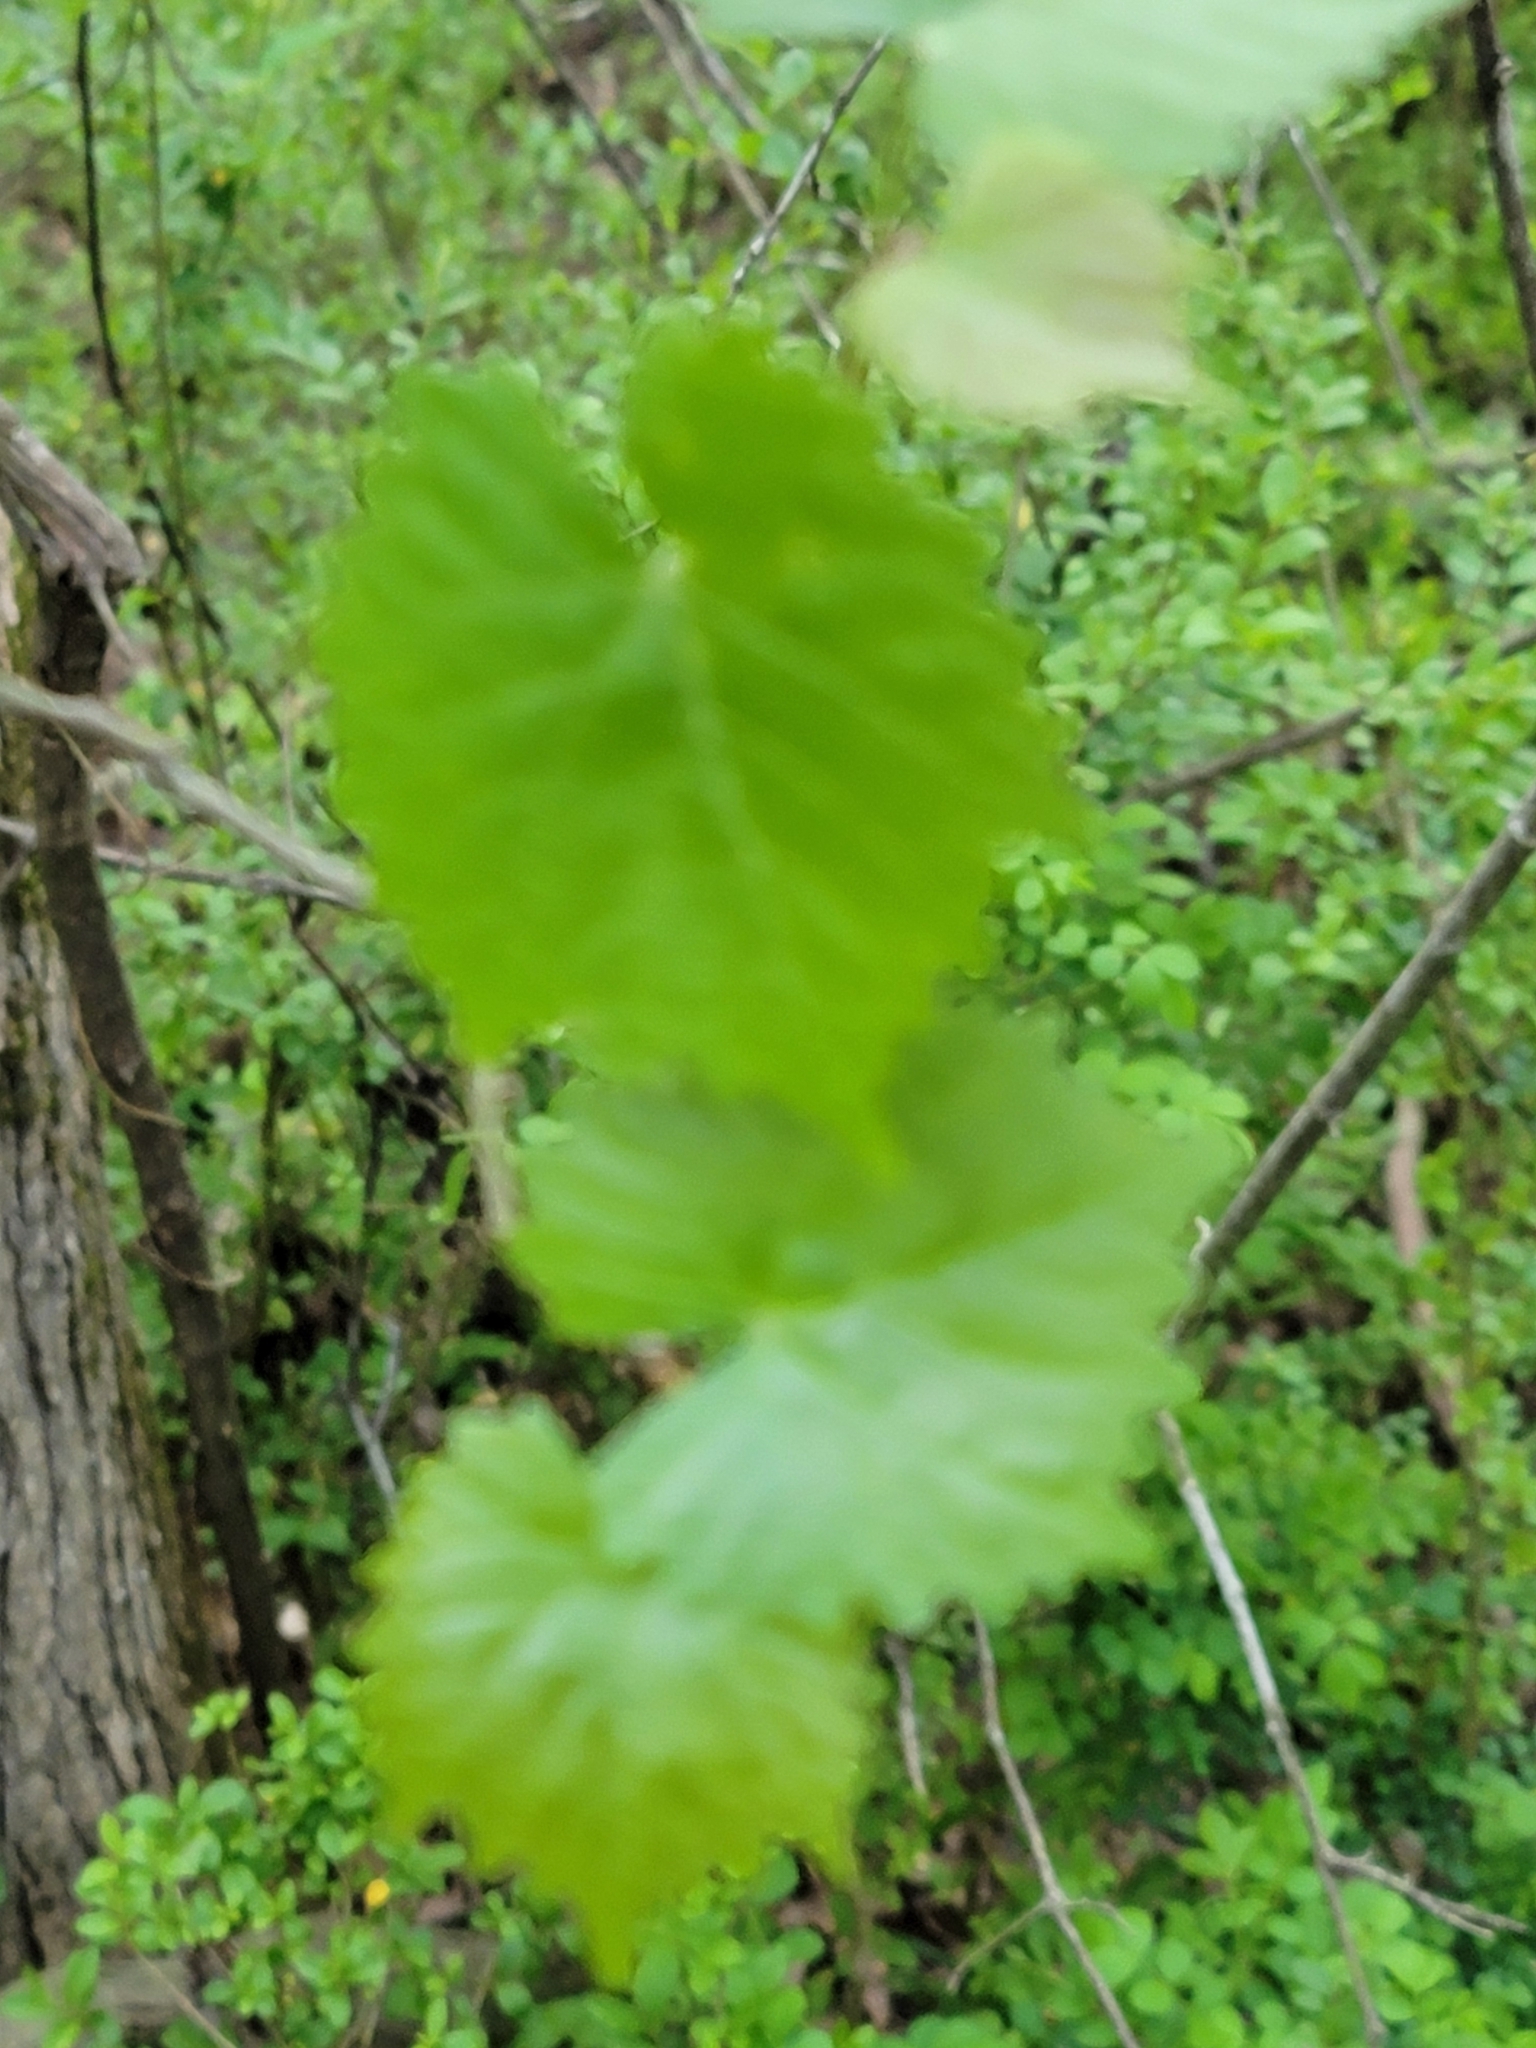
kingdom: Plantae
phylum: Tracheophyta
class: Magnoliopsida
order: Vitales
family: Vitaceae
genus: Vitis
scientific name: Vitis rotundifolia
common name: Muscadine grape
